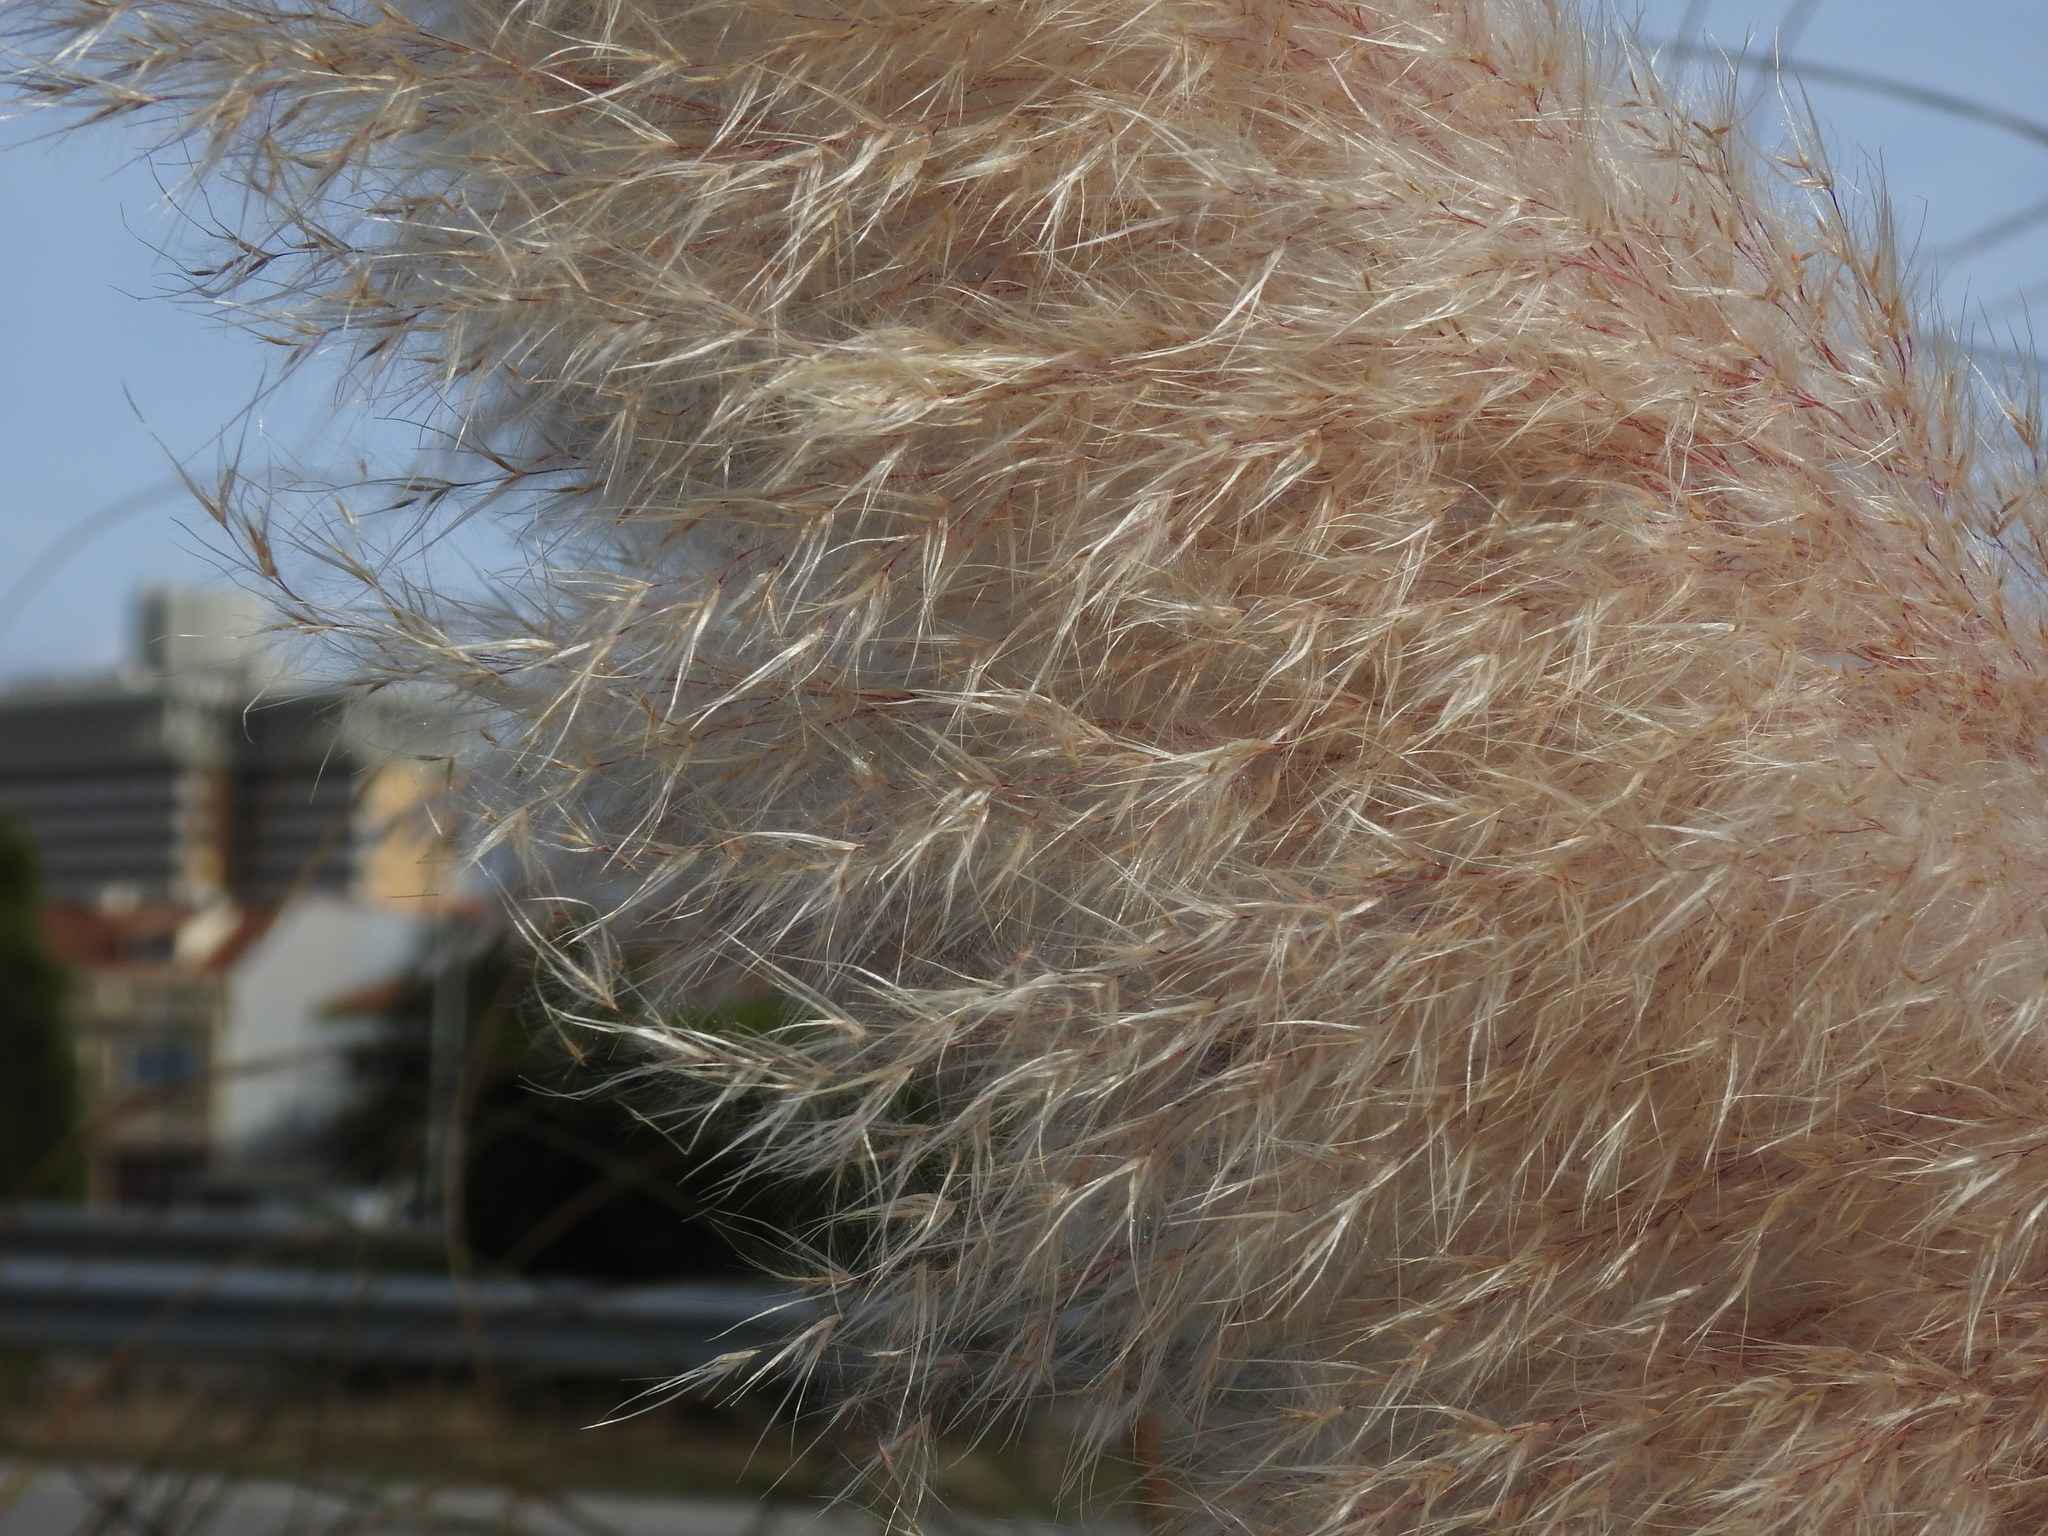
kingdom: Plantae
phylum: Tracheophyta
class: Liliopsida
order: Poales
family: Poaceae
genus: Cortaderia
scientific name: Cortaderia selloana
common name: Uruguayan pampas grass
